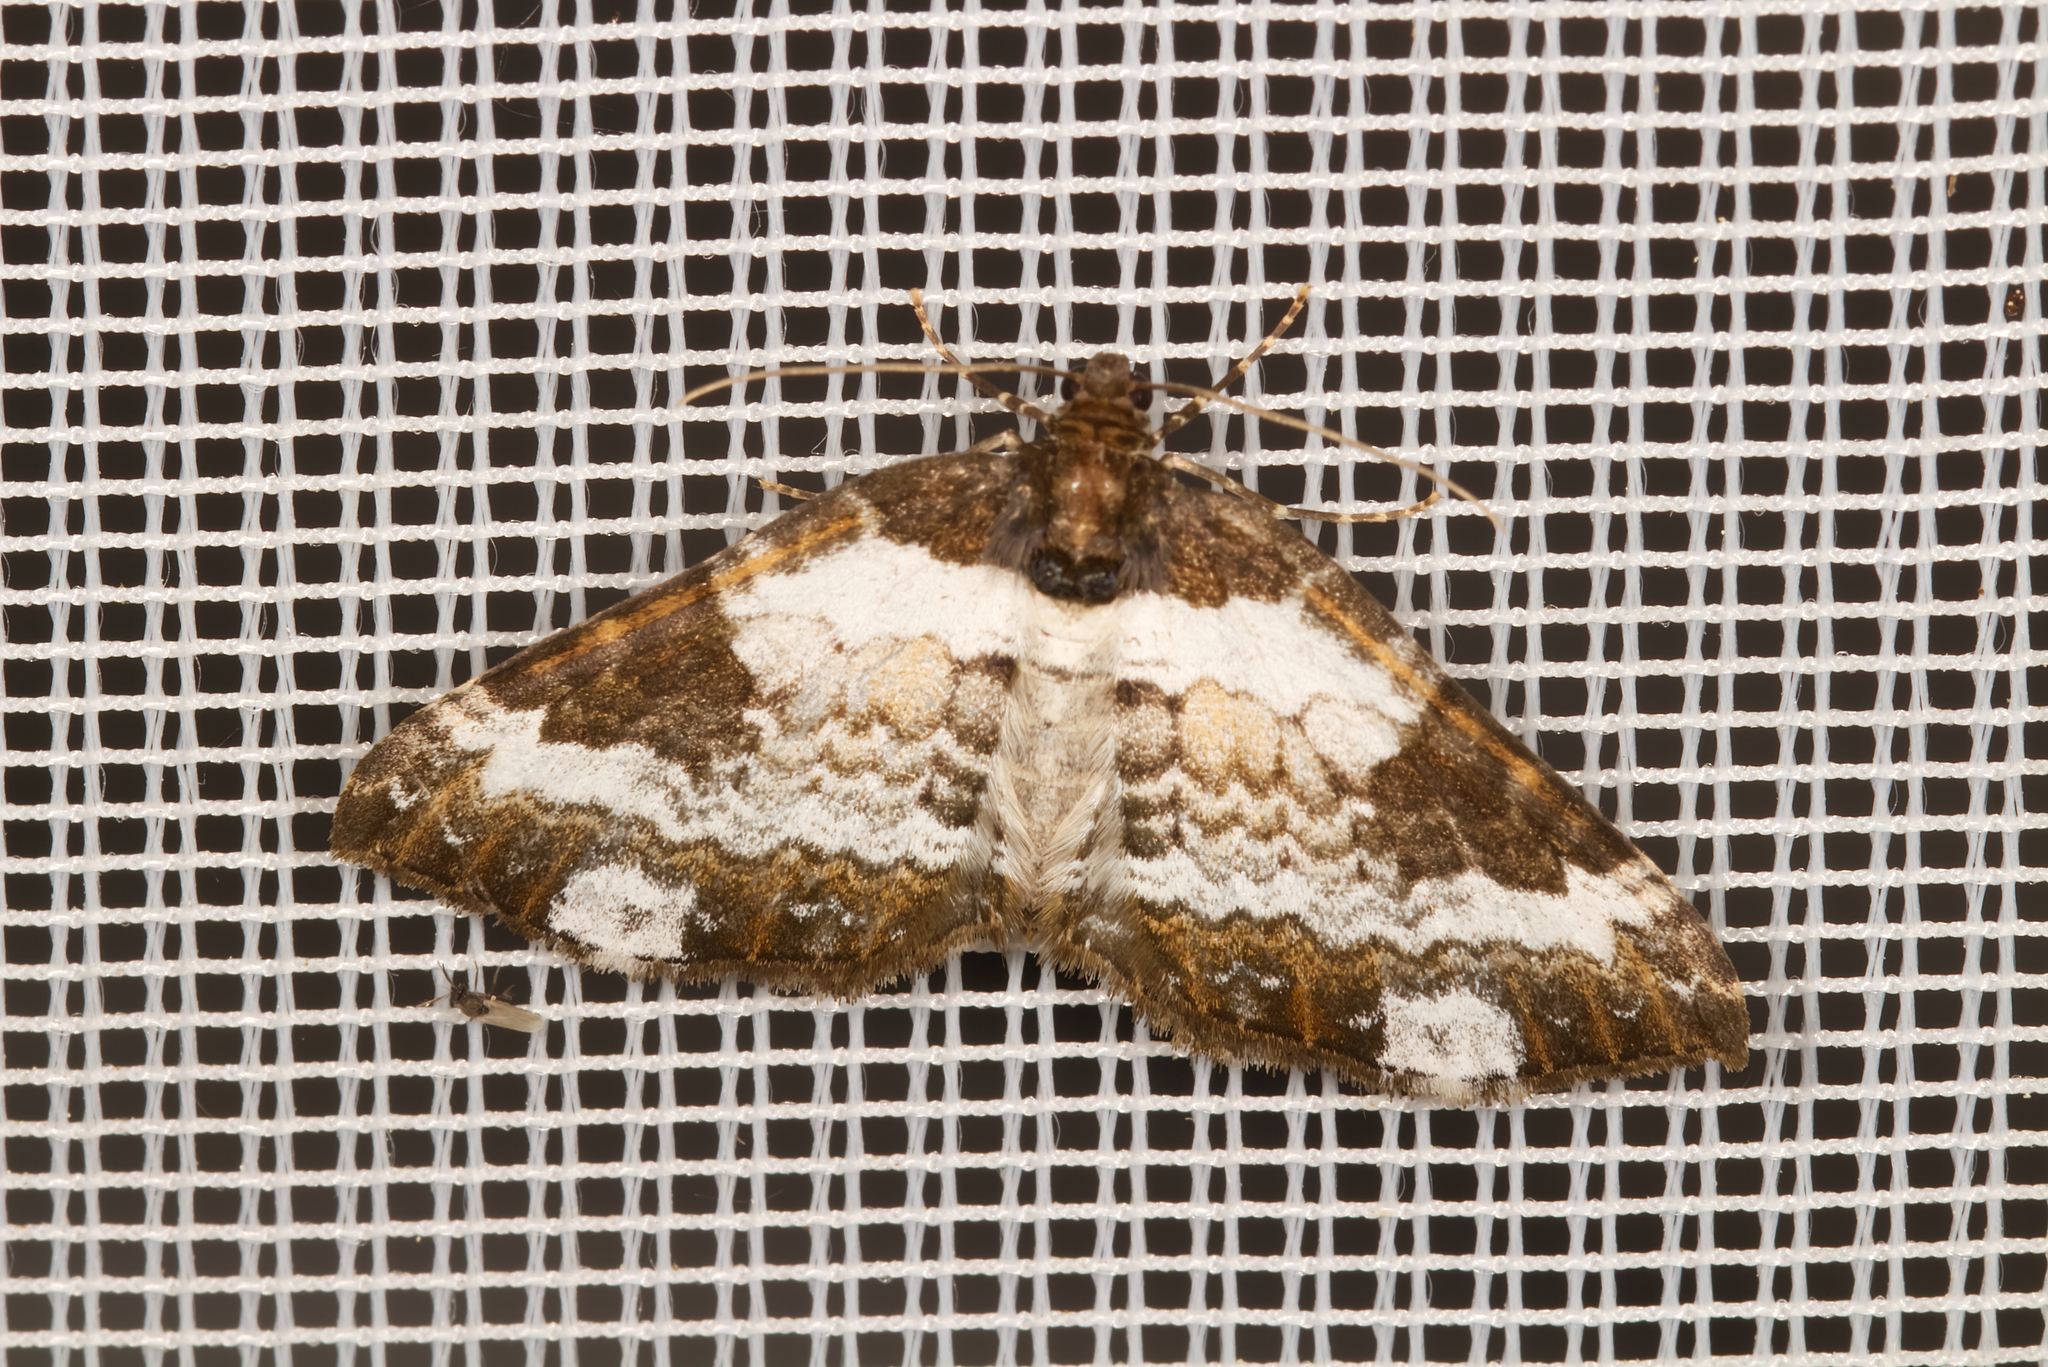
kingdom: Animalia
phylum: Arthropoda
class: Insecta
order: Lepidoptera
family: Geometridae
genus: Melanthia
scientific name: Melanthia procellata
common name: Pretty chalk carpet
